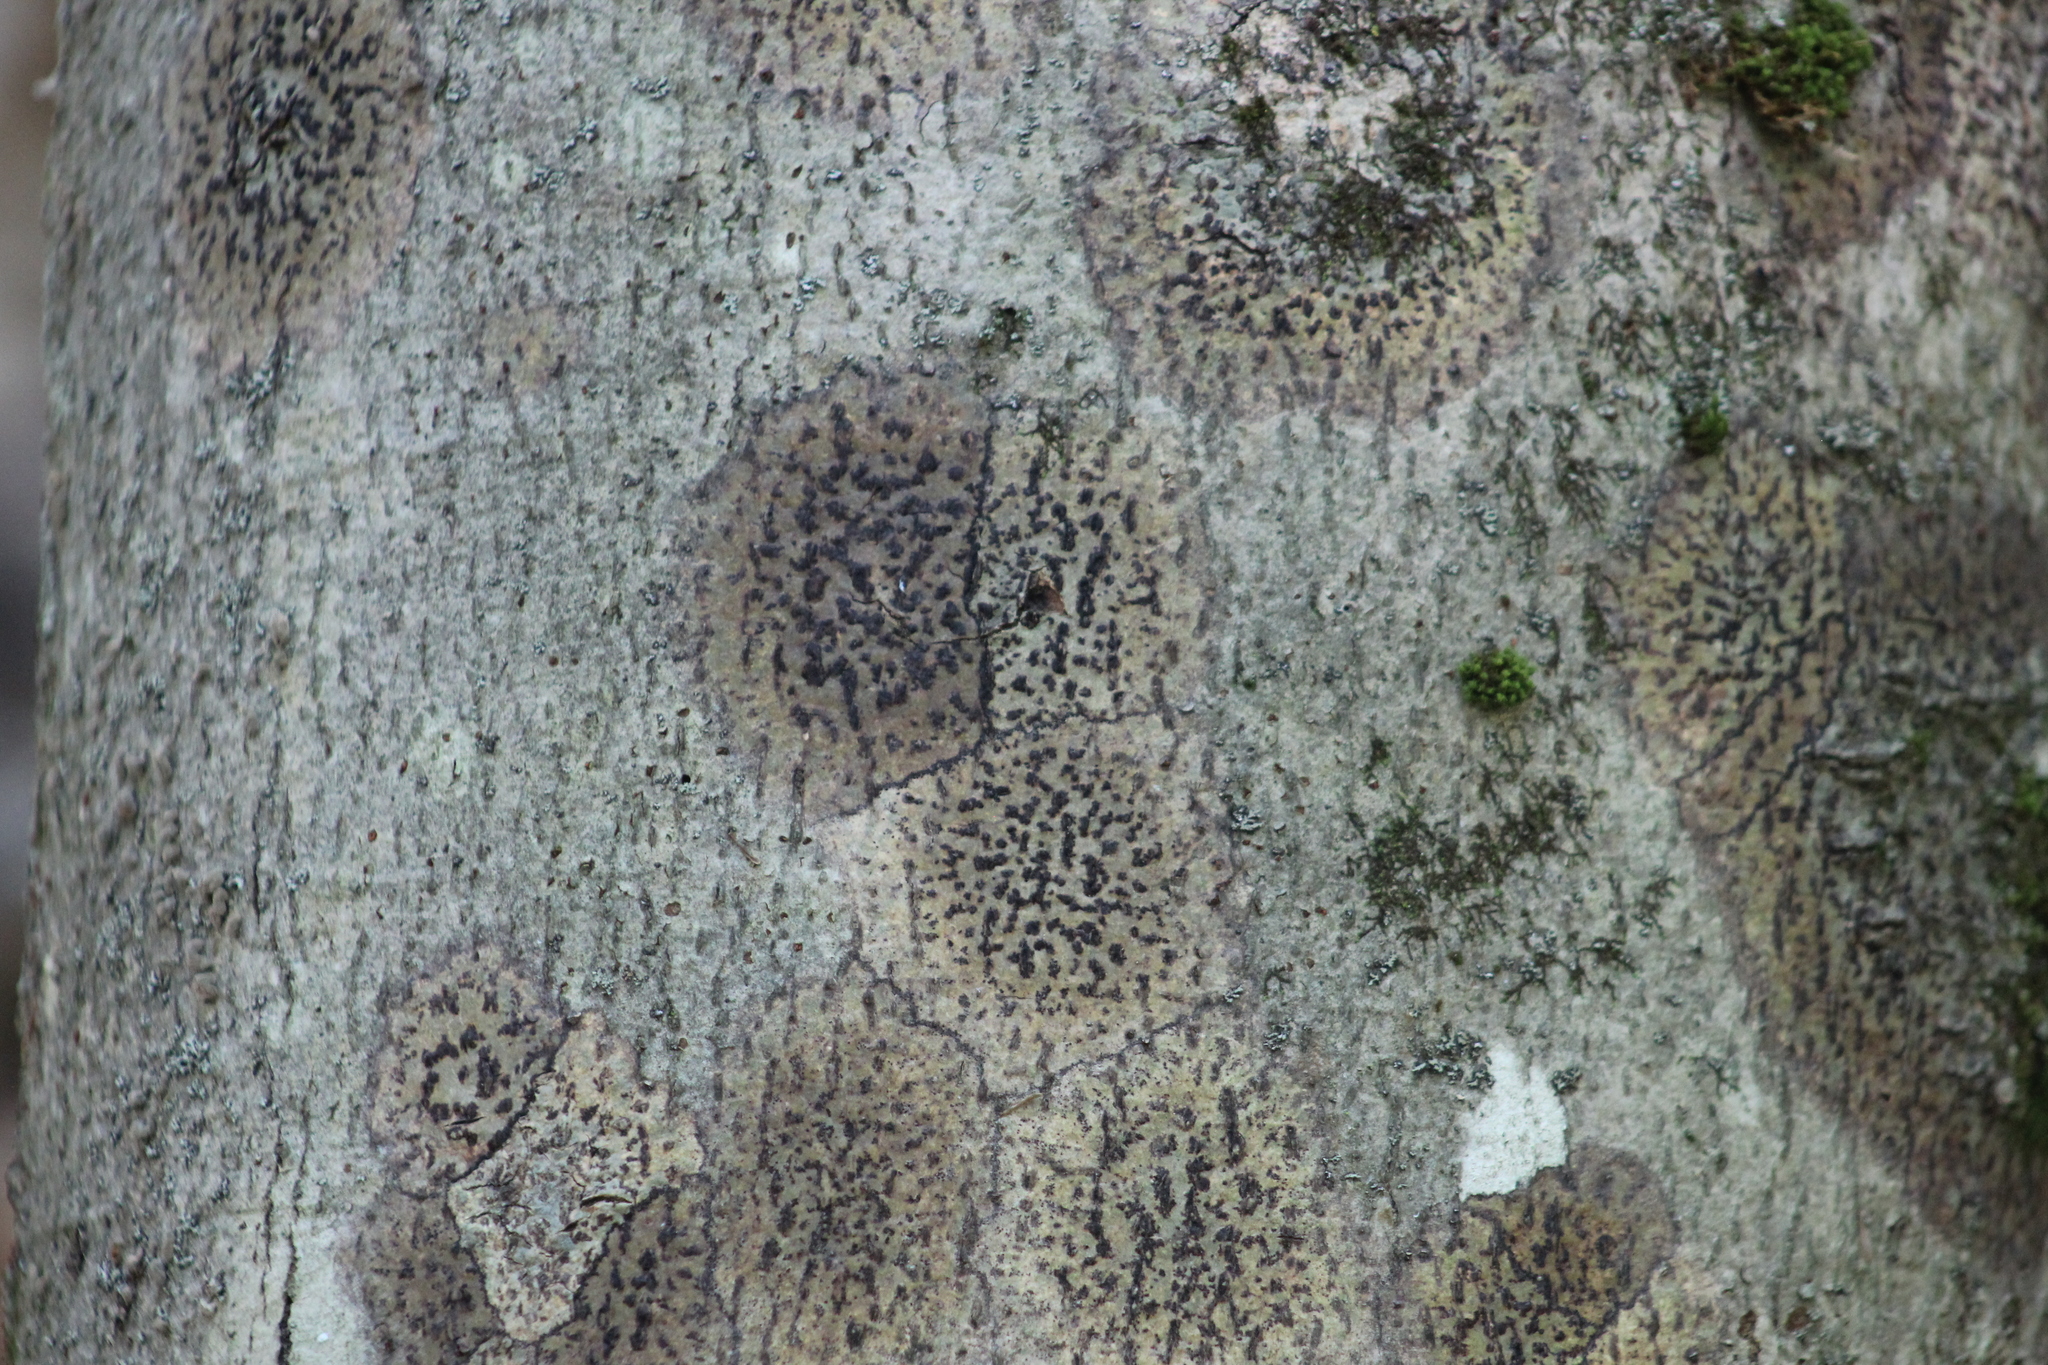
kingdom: Fungi
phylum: Ascomycota
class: Dothideomycetes
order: Trypetheliales
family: Trypetheliaceae
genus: Viridothelium
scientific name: Viridothelium virens
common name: Speckled blister lichen
